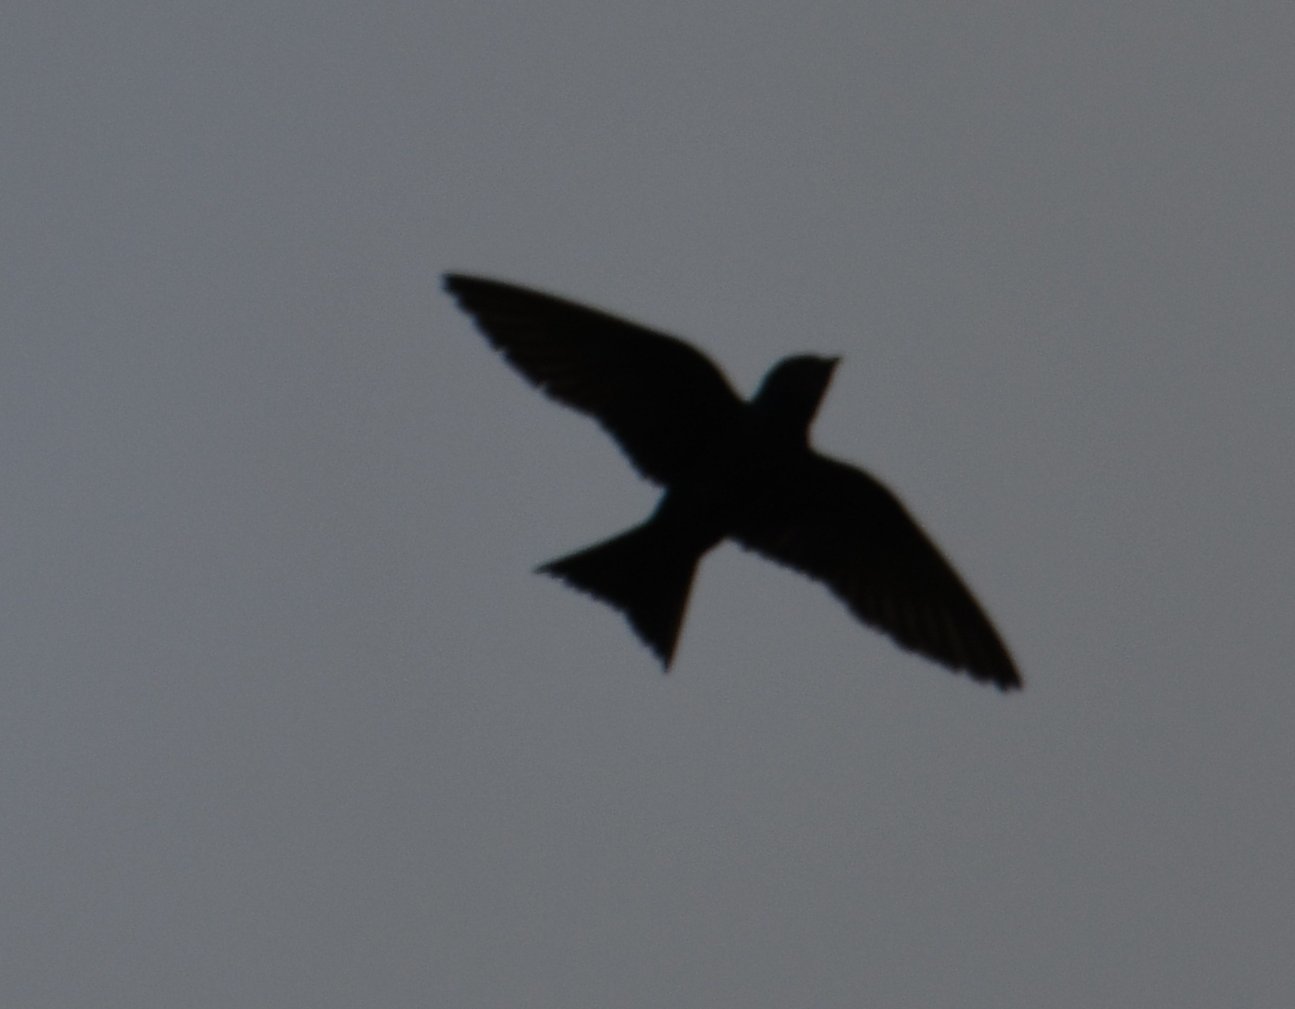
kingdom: Animalia
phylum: Chordata
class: Aves
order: Passeriformes
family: Hirundinidae
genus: Progne
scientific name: Progne subis
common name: Purple martin
